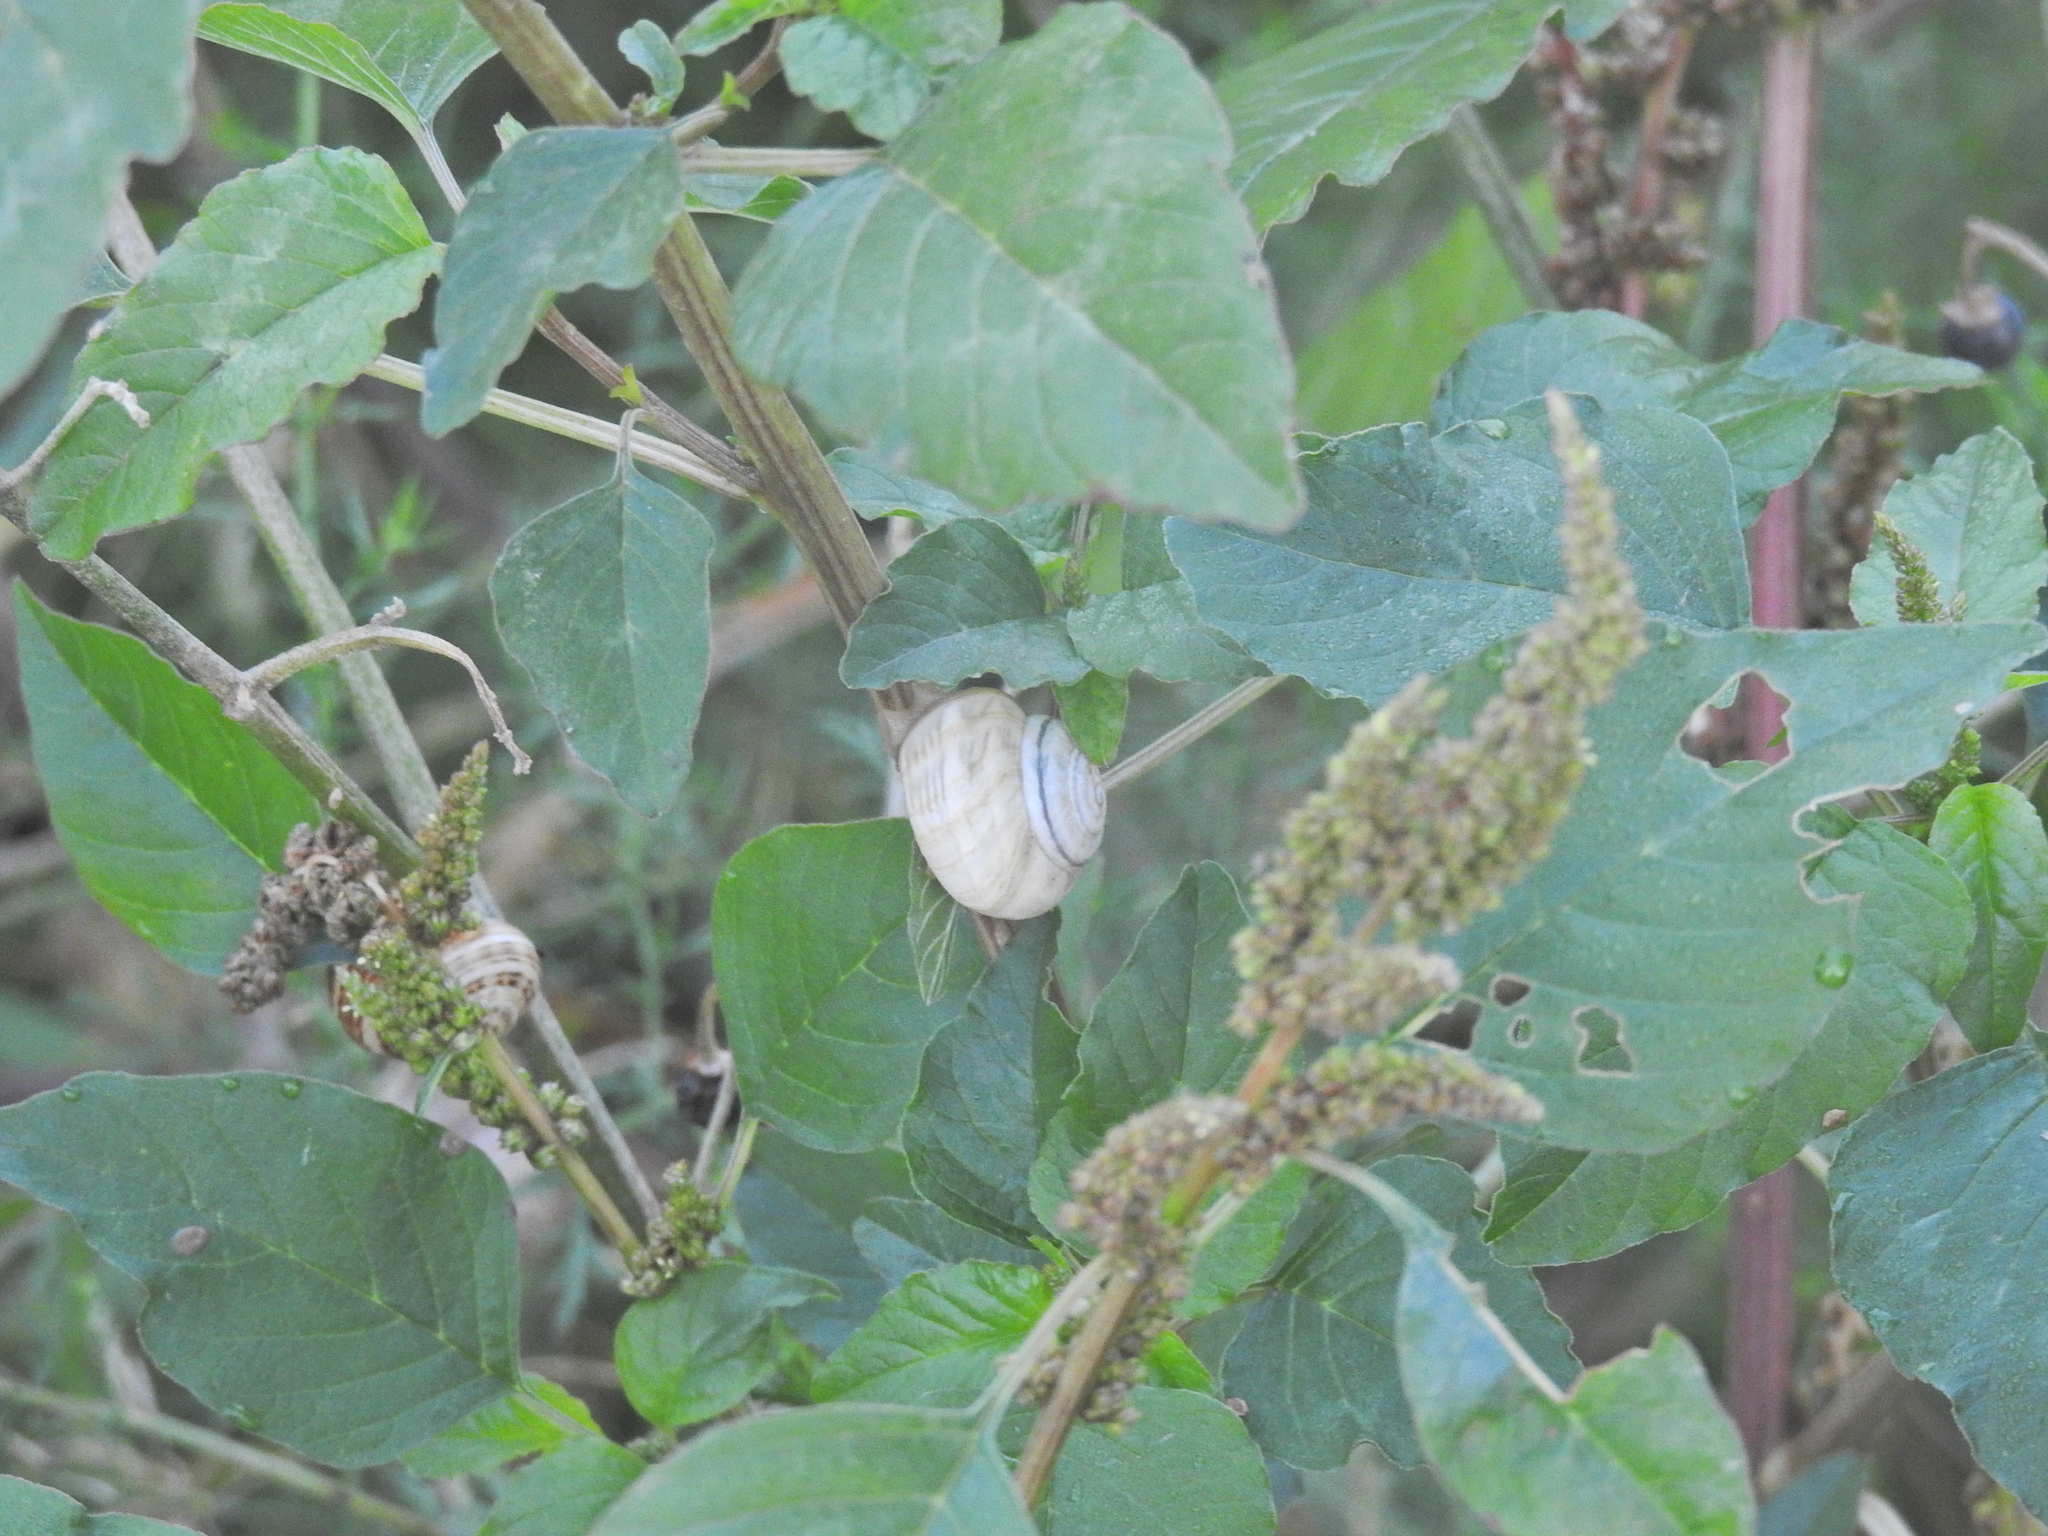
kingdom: Animalia
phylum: Mollusca
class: Gastropoda
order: Stylommatophora
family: Helicidae
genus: Theba
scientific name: Theba pisana
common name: White snail
